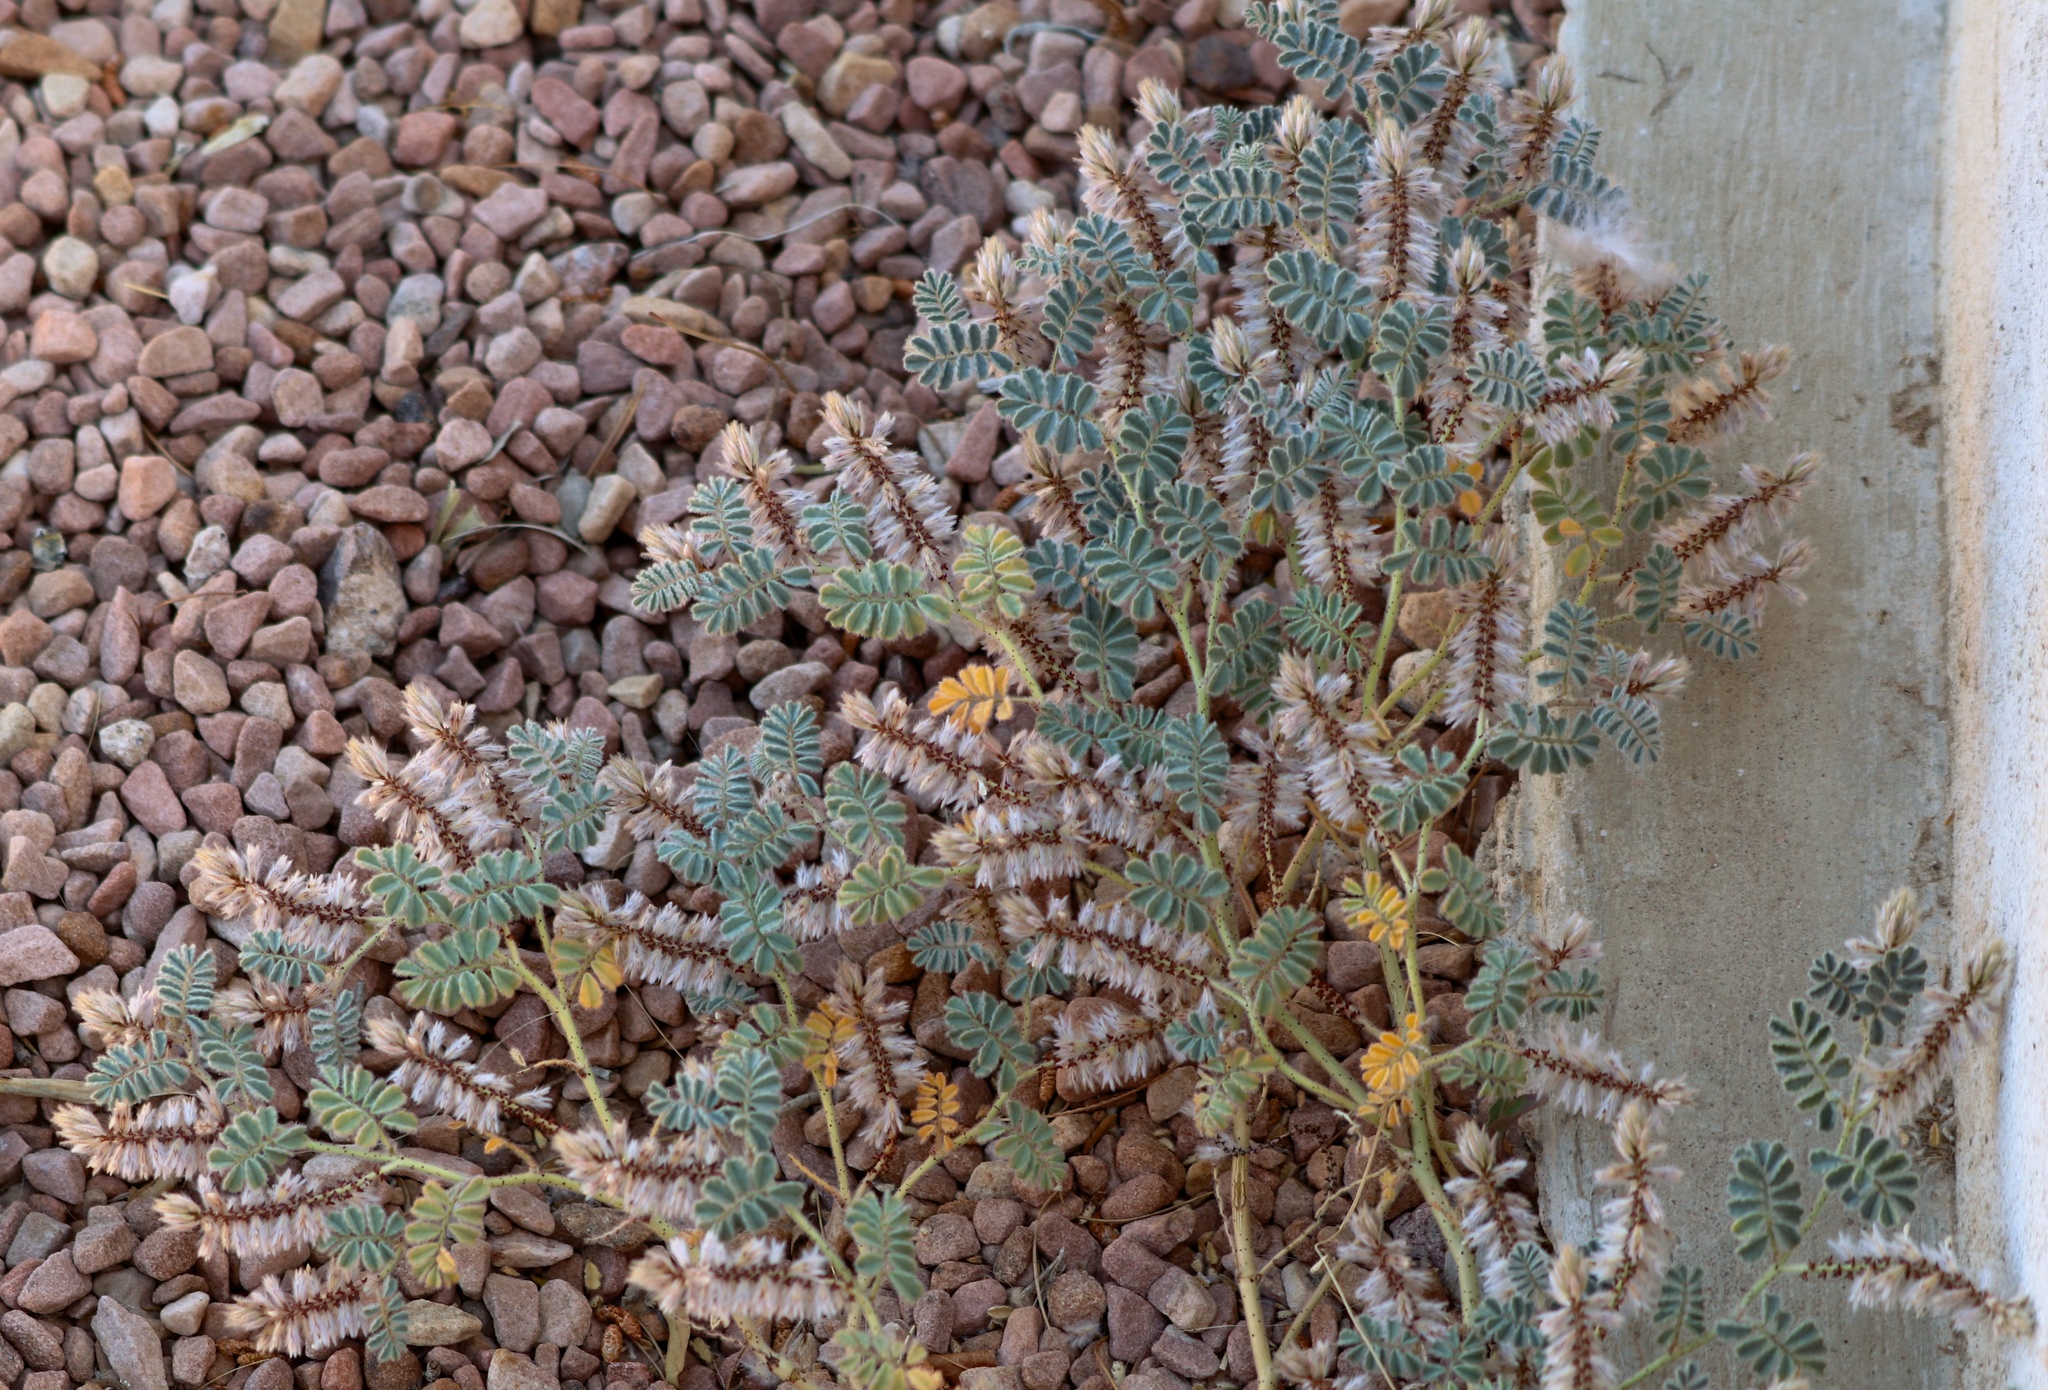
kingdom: Plantae
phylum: Tracheophyta
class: Magnoliopsida
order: Fabales
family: Fabaceae
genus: Dalea
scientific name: Dalea mollissima
